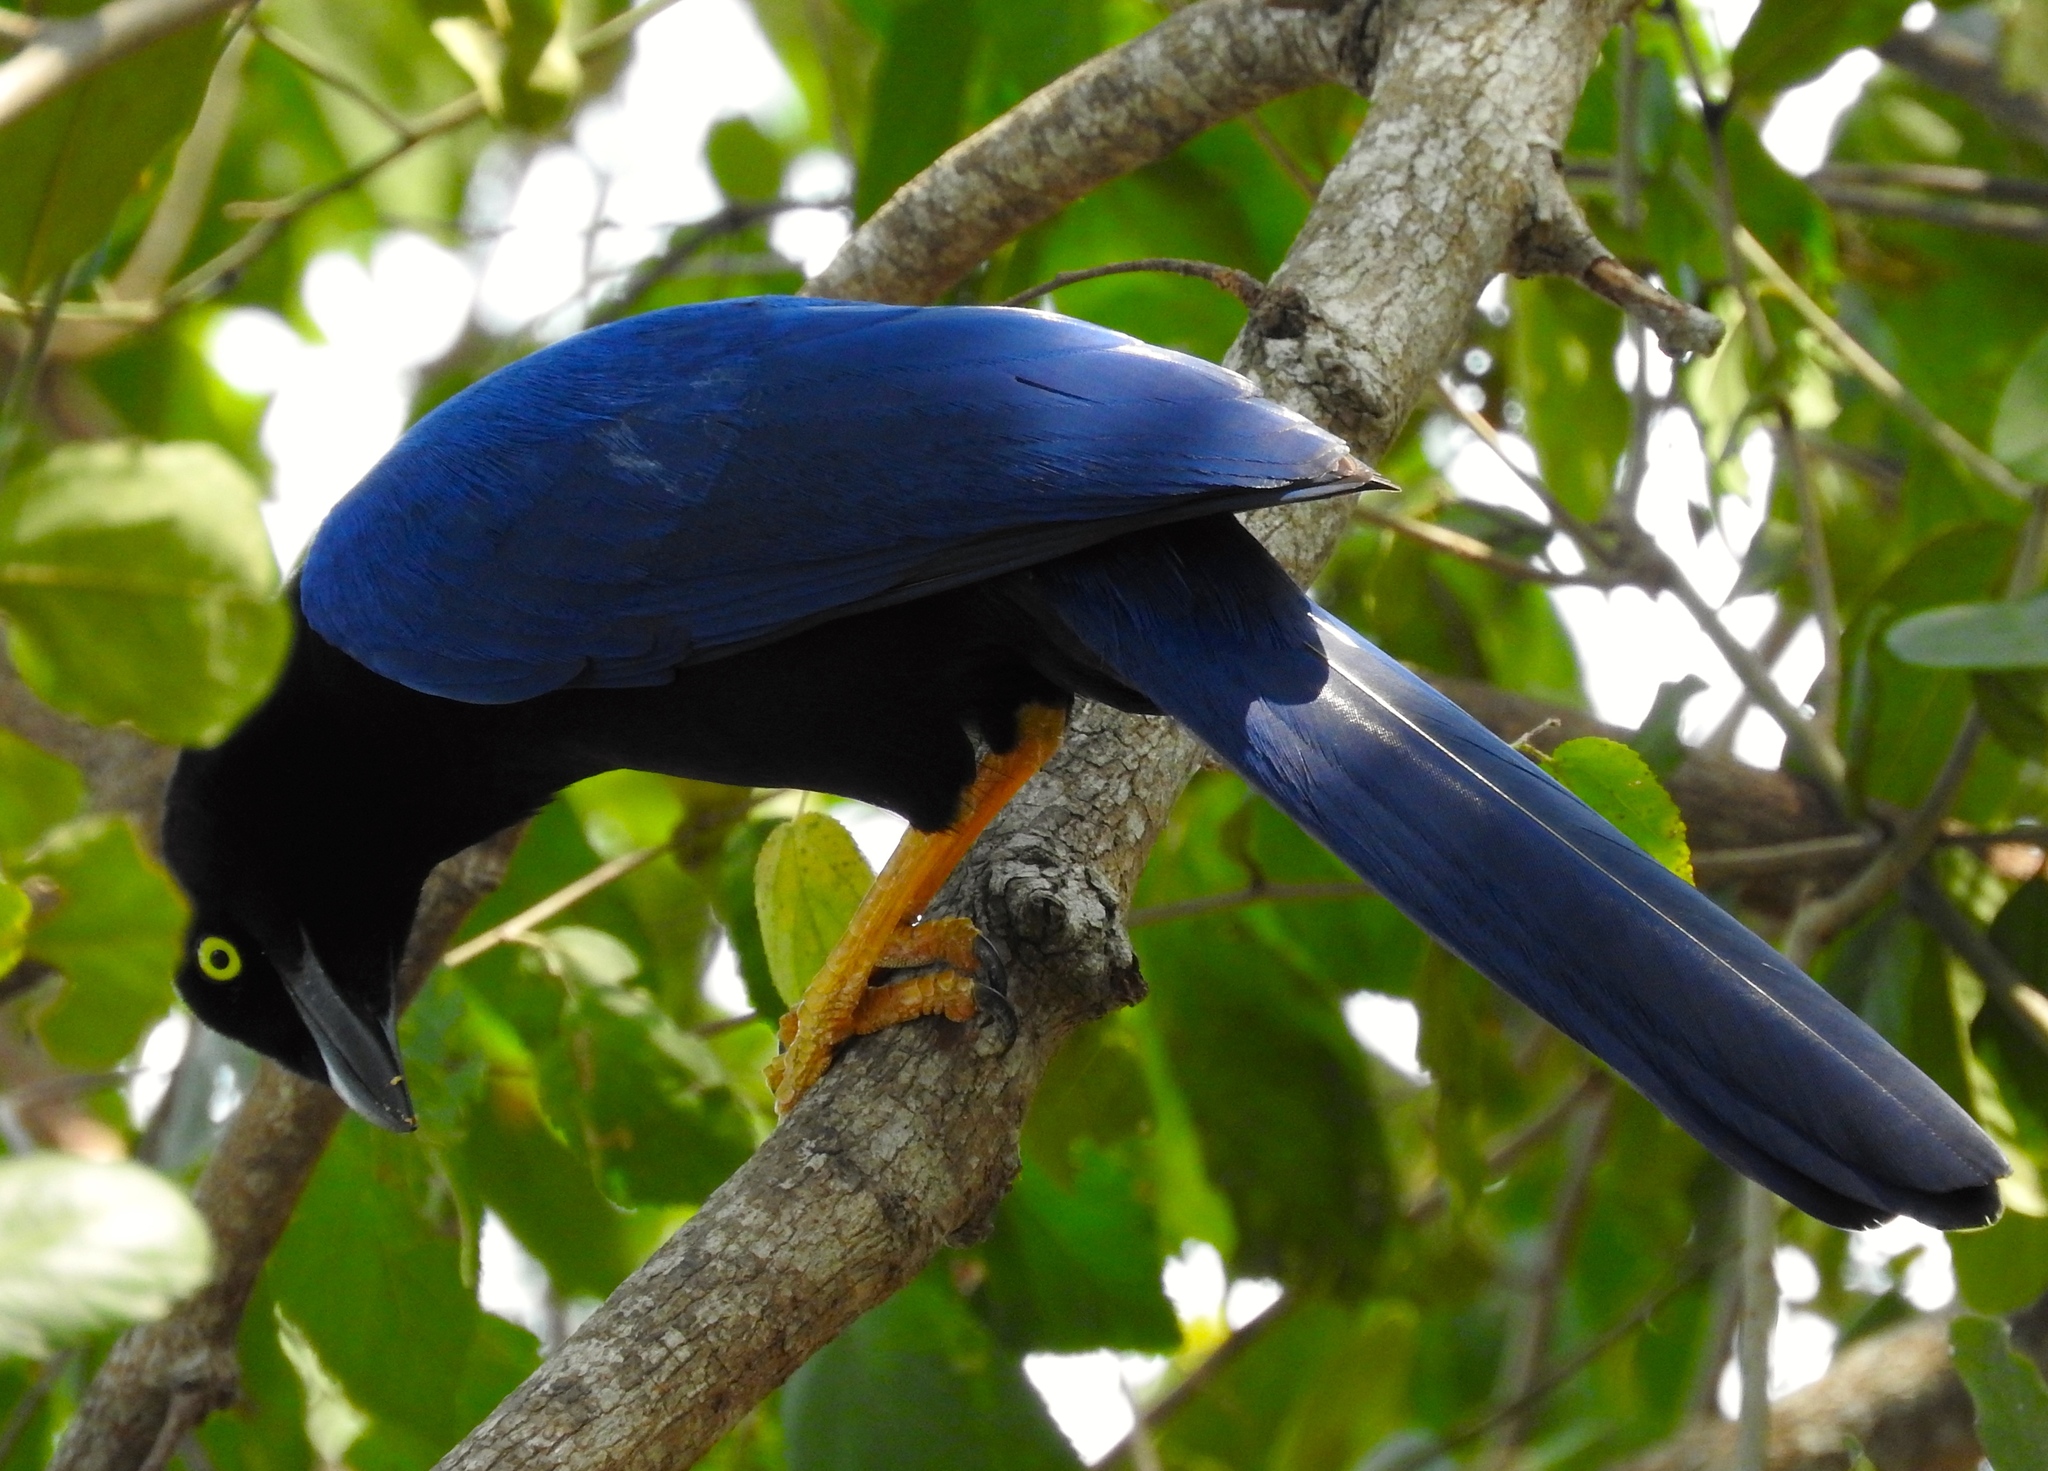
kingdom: Animalia
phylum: Chordata
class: Aves
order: Passeriformes
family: Corvidae
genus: Cyanocorax
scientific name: Cyanocorax beecheii
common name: Purplish-backed jay
